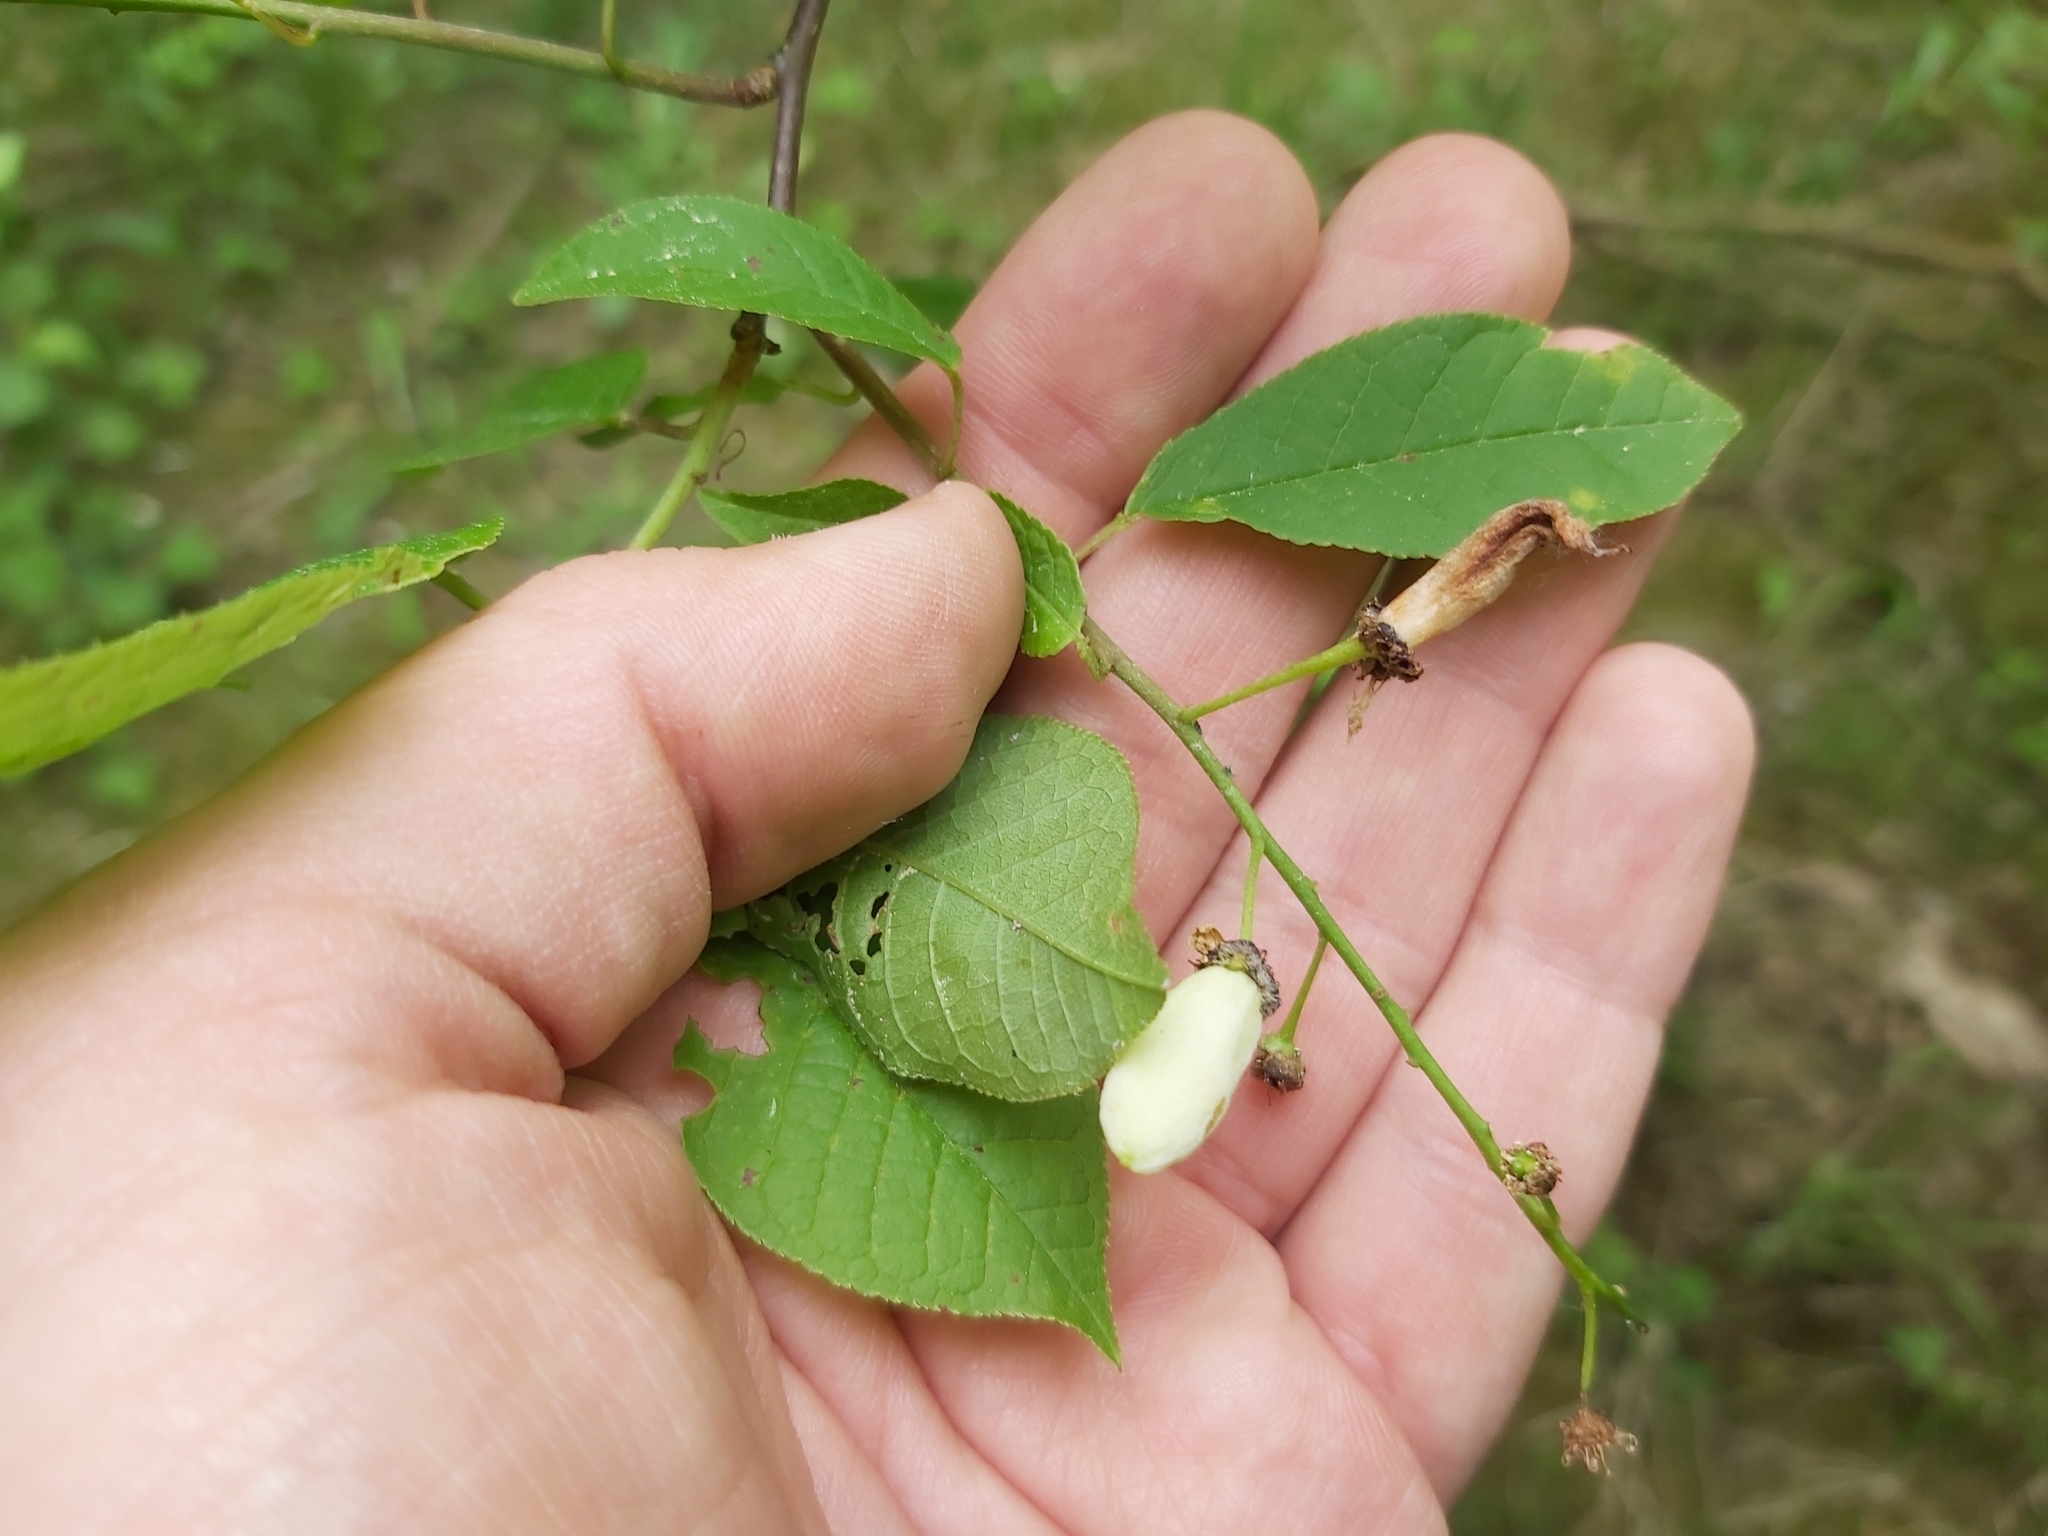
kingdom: Fungi
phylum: Ascomycota
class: Taphrinomycetes
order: Taphrinales
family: Taphrinaceae
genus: Taphrina
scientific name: Taphrina padi
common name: Bird cherry pocket
